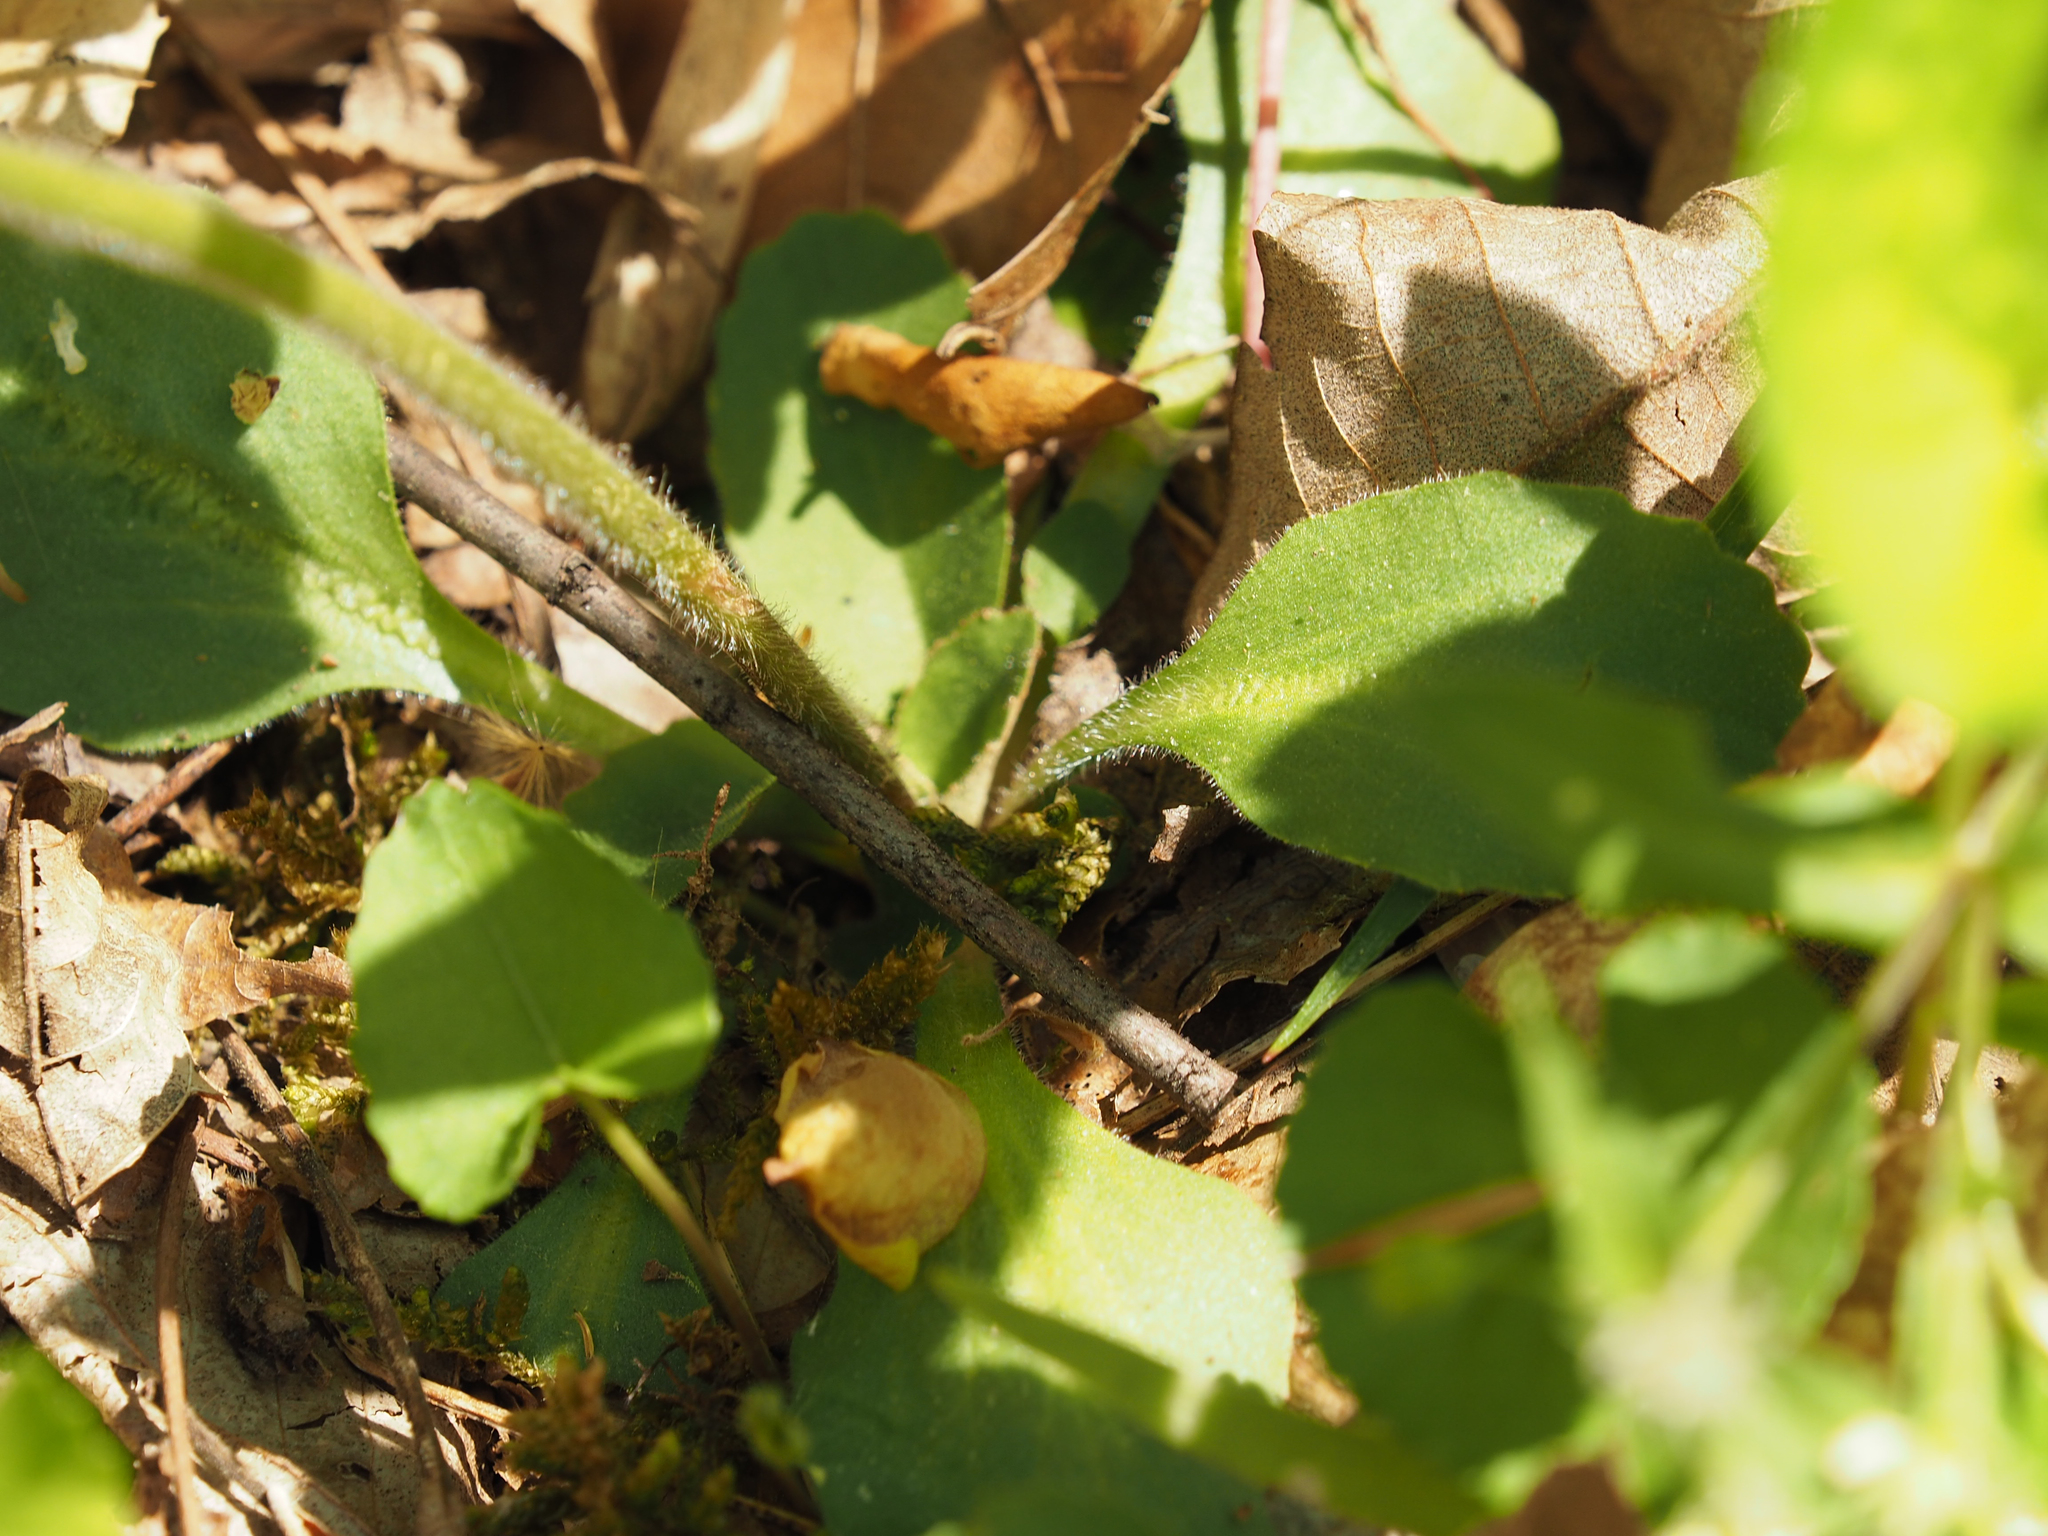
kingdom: Plantae
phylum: Tracheophyta
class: Magnoliopsida
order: Saxifragales
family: Saxifragaceae
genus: Micranthes
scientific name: Micranthes virginiensis
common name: Early saxifrage
